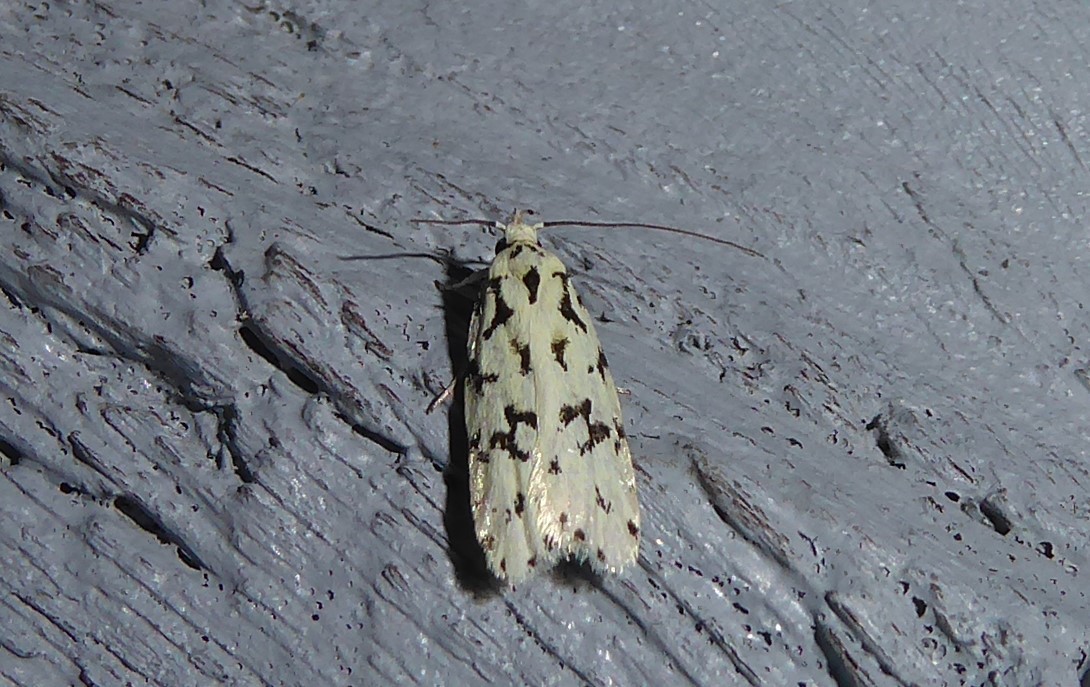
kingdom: Animalia
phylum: Arthropoda
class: Insecta
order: Lepidoptera
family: Oecophoridae
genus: Izatha
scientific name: Izatha huttoni
